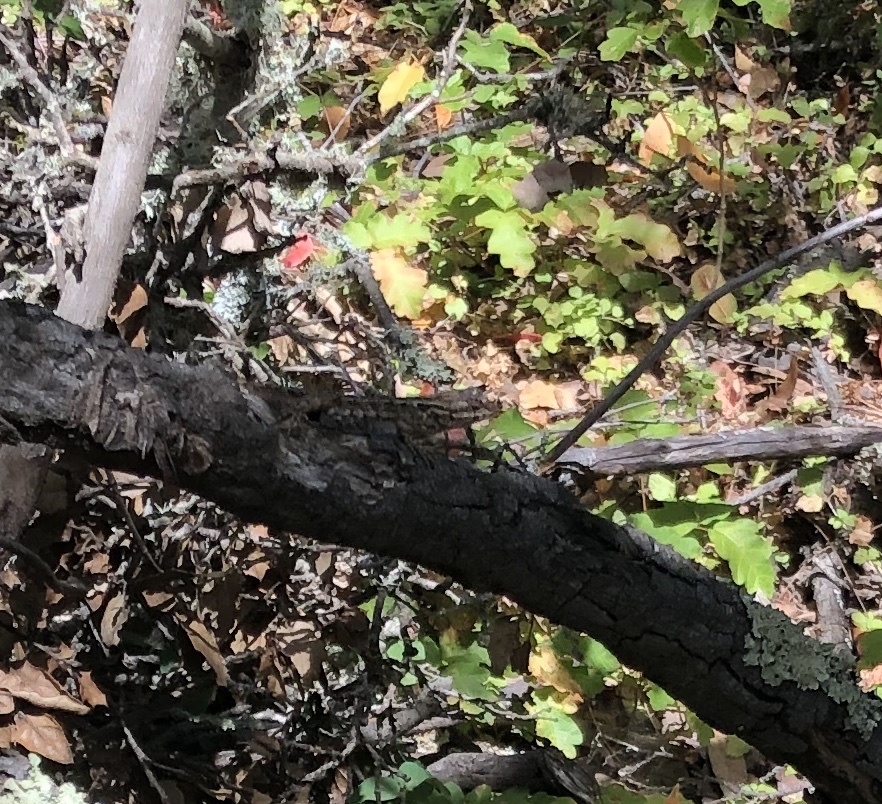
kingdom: Animalia
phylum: Chordata
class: Squamata
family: Phrynosomatidae
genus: Sceloporus
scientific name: Sceloporus occidentalis
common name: Western fence lizard
